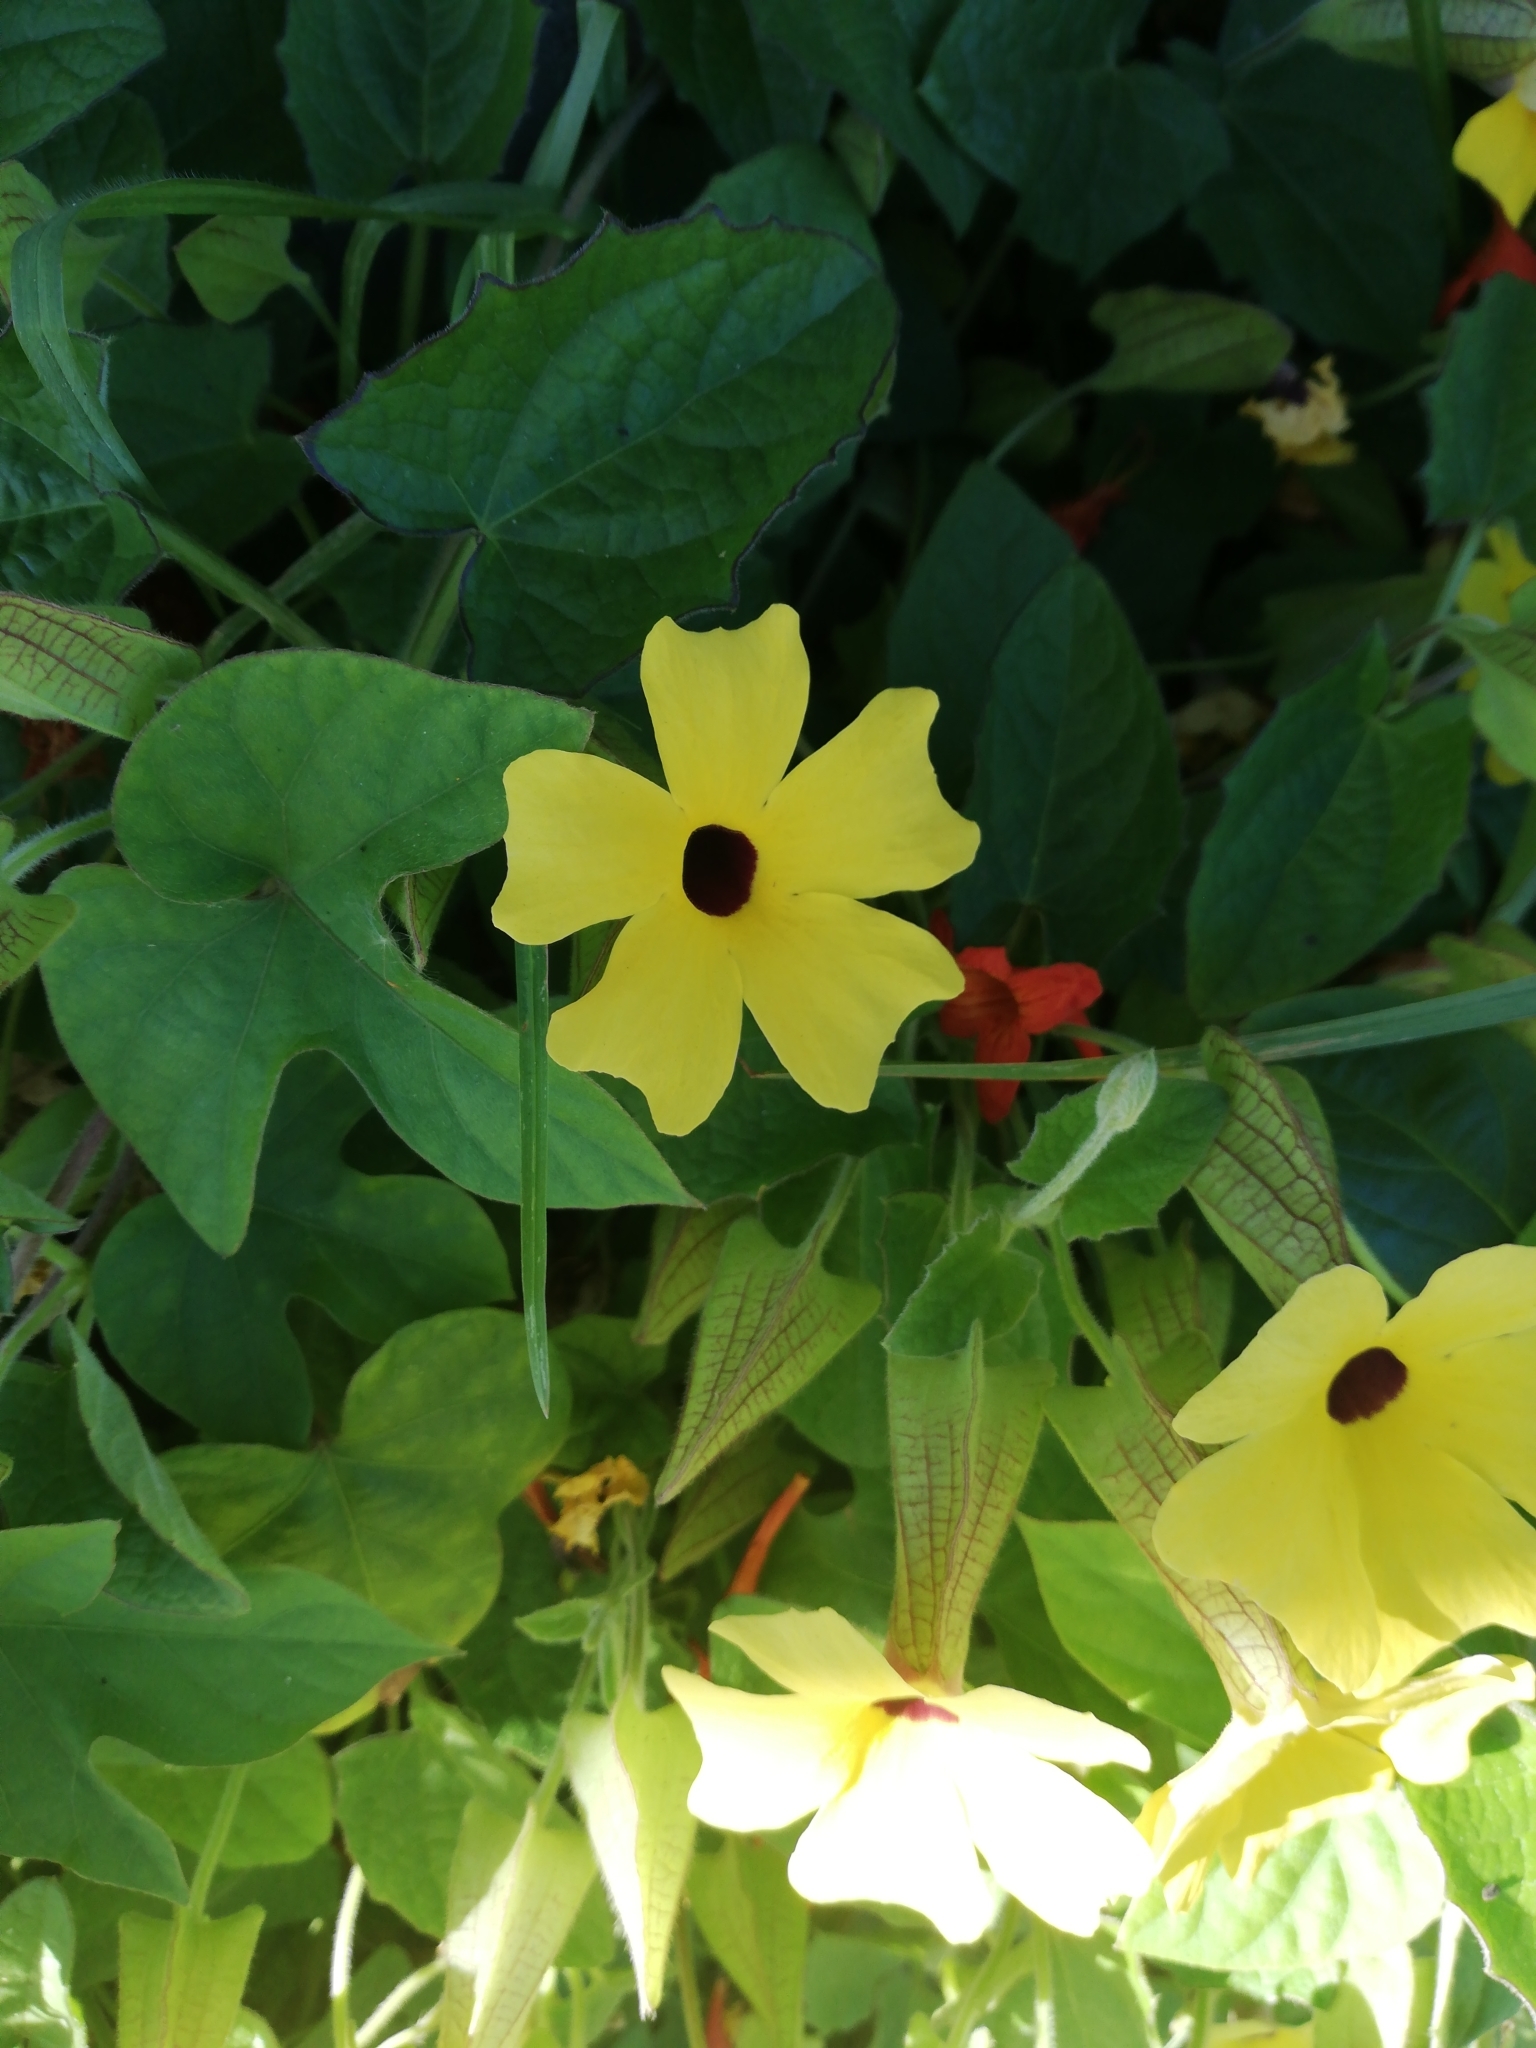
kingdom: Plantae
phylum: Tracheophyta
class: Magnoliopsida
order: Lamiales
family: Acanthaceae
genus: Thunbergia
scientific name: Thunbergia alata
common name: Blackeyed susan vine
